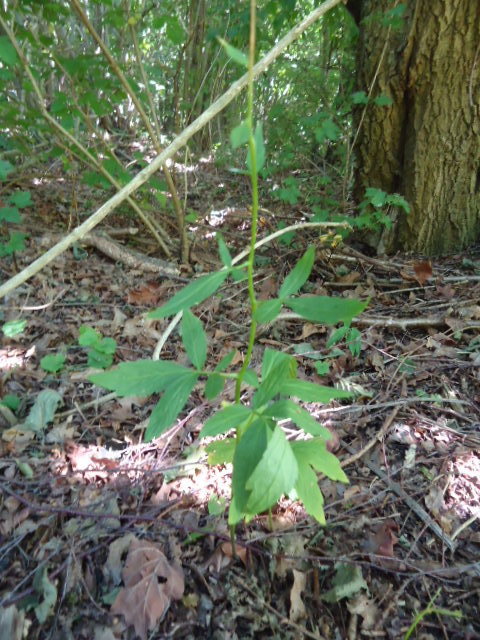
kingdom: Plantae
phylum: Tracheophyta
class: Magnoliopsida
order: Brassicales
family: Brassicaceae
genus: Cardamine
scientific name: Cardamine bulbifera
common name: Coralroot bittercress
